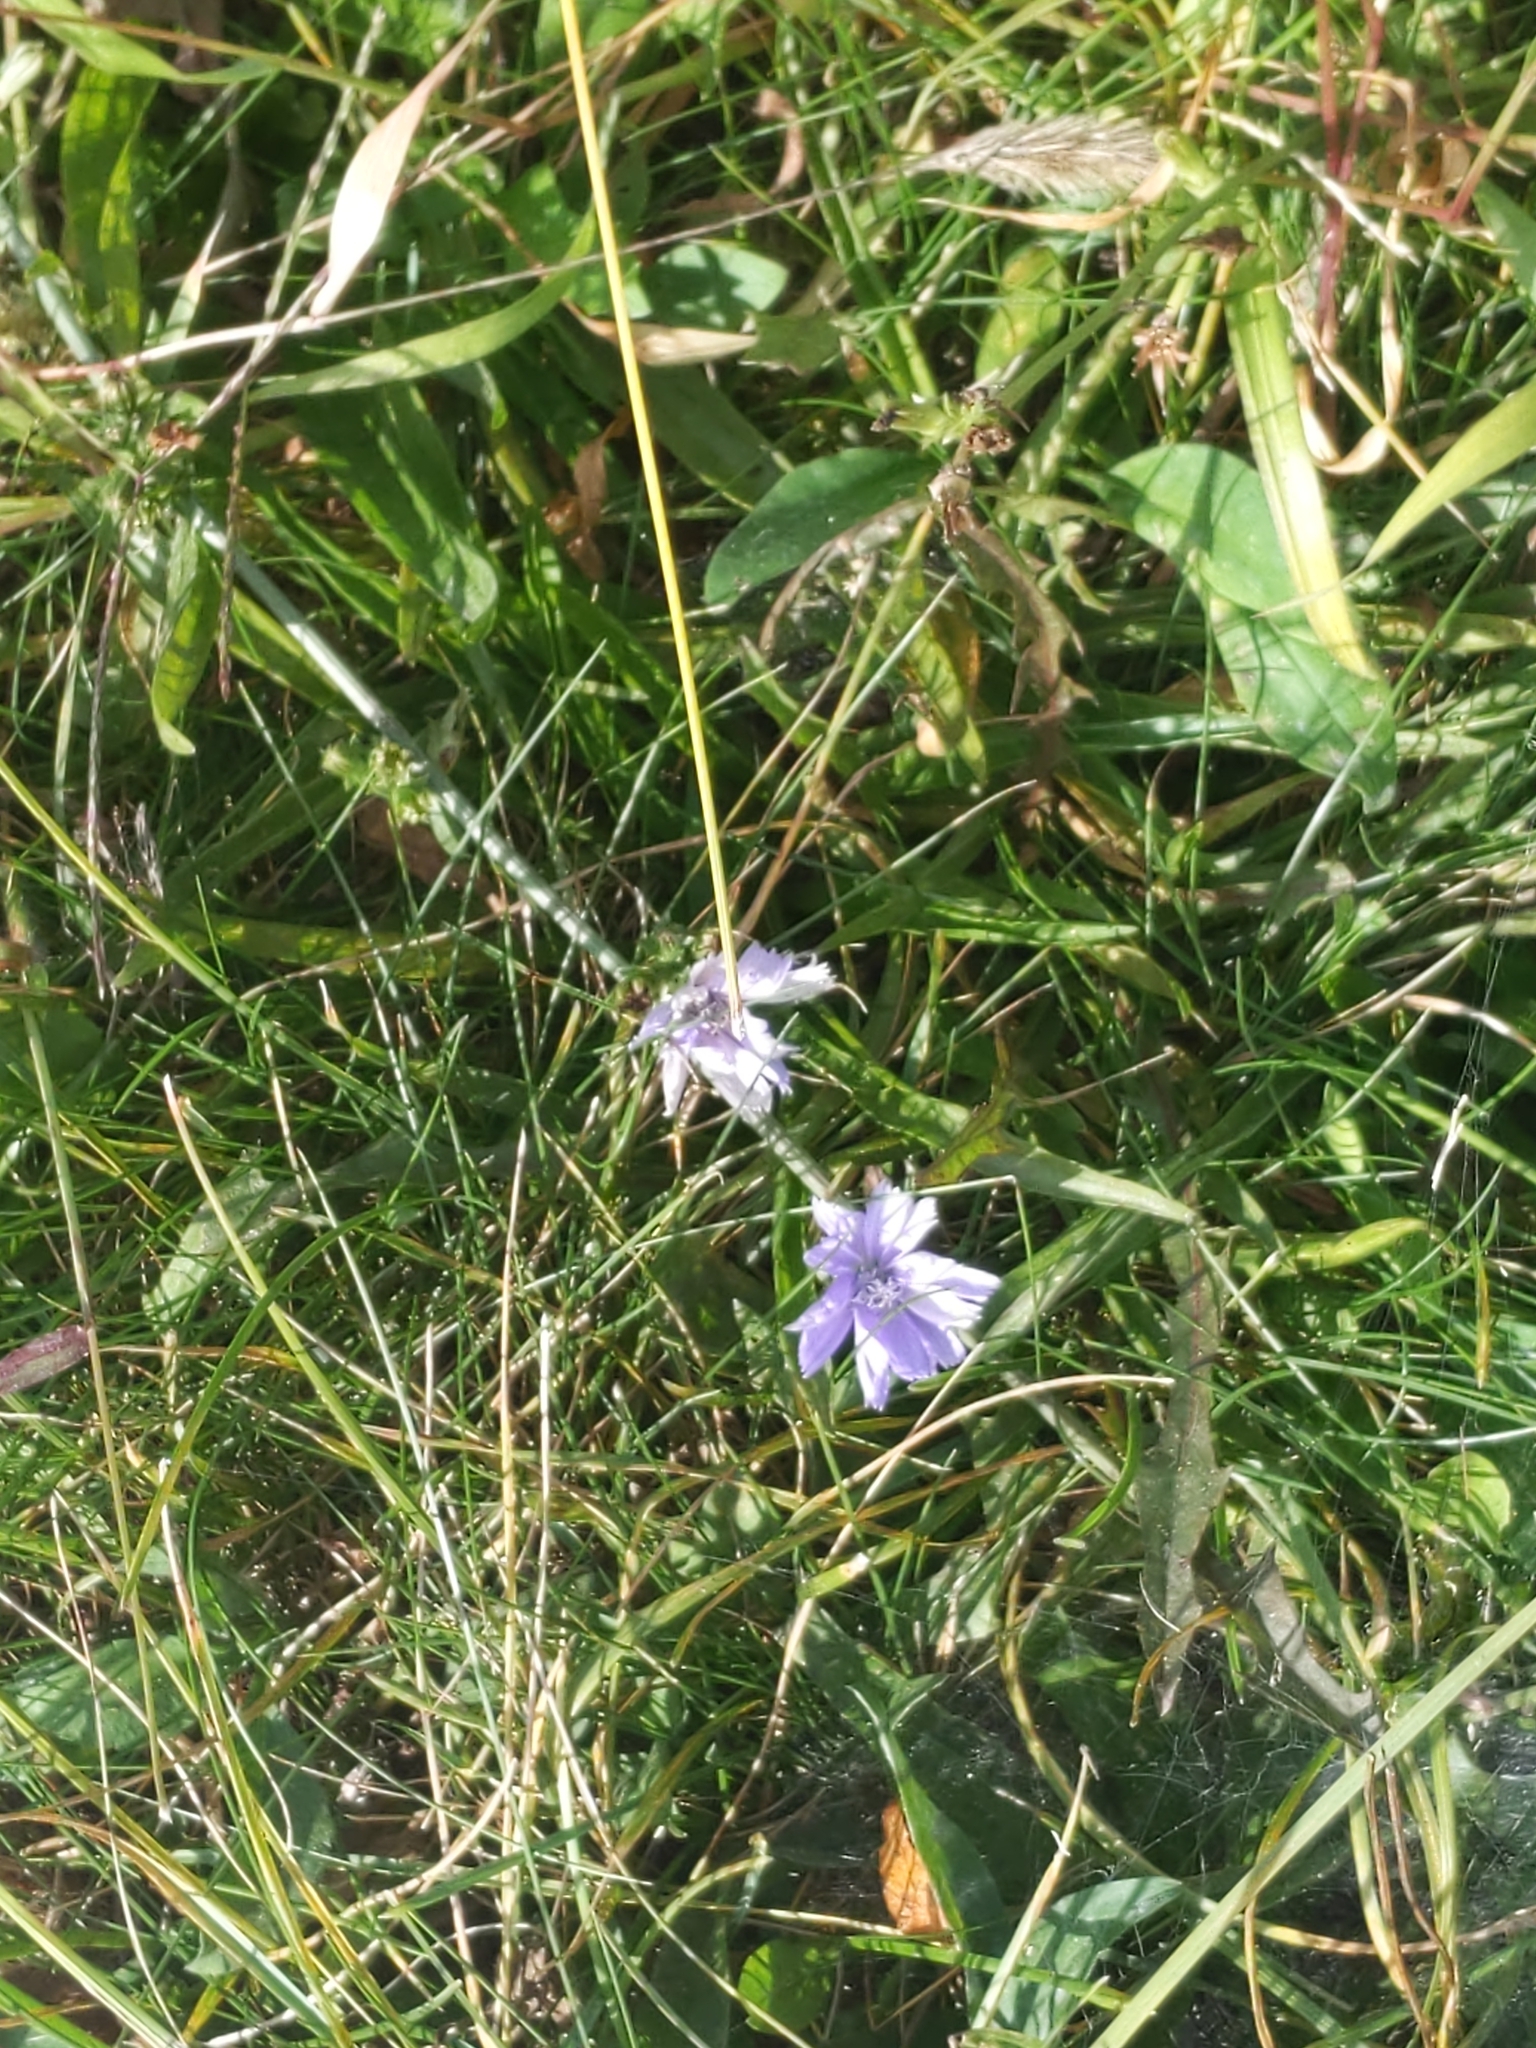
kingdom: Plantae
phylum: Tracheophyta
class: Magnoliopsida
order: Asterales
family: Asteraceae
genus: Cichorium
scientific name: Cichorium intybus
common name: Chicory
